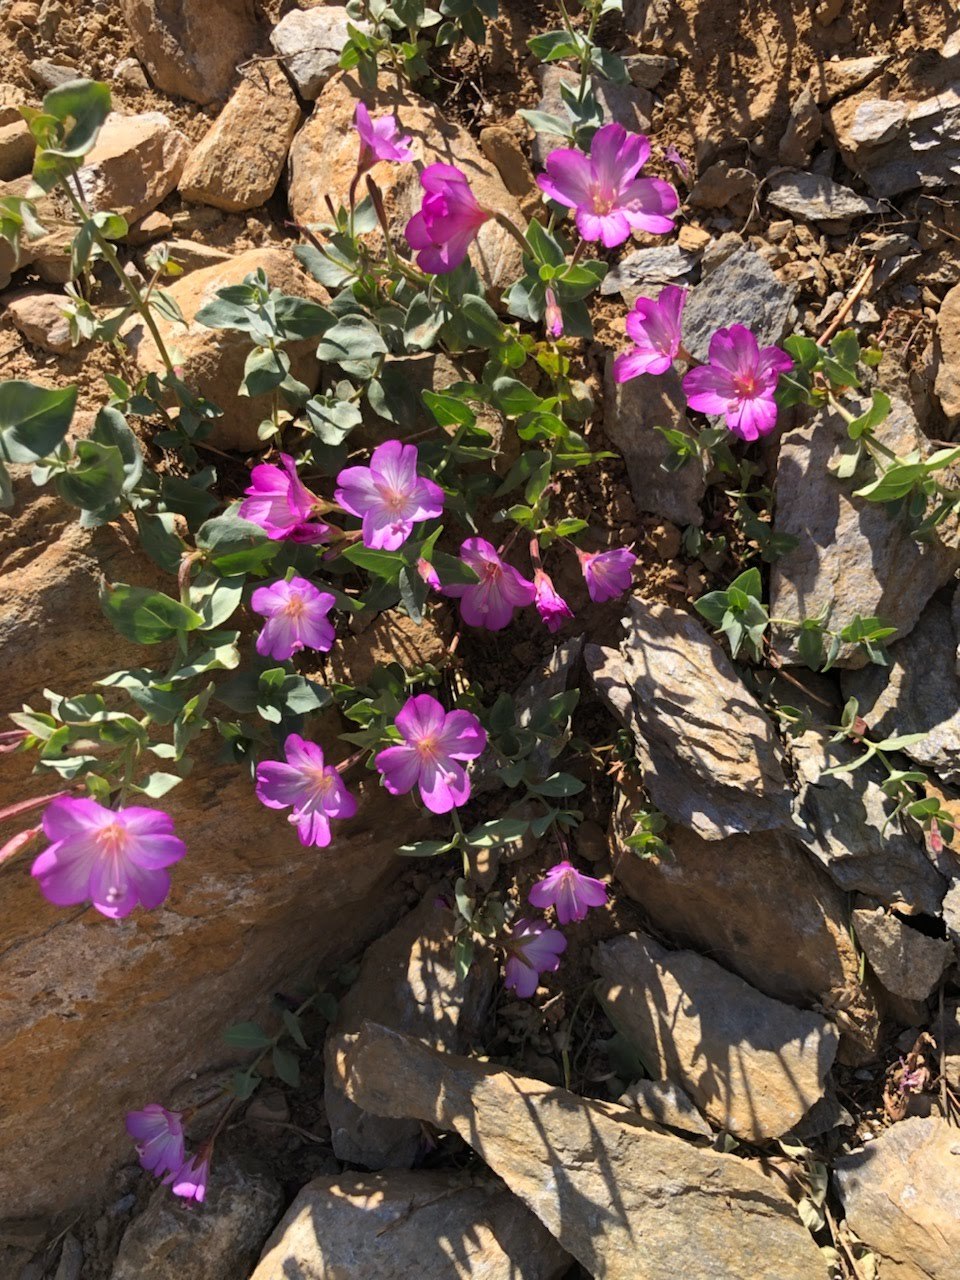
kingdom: Plantae
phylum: Tracheophyta
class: Magnoliopsida
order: Myrtales
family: Onagraceae
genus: Epilobium
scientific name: Epilobium siskiyouense
